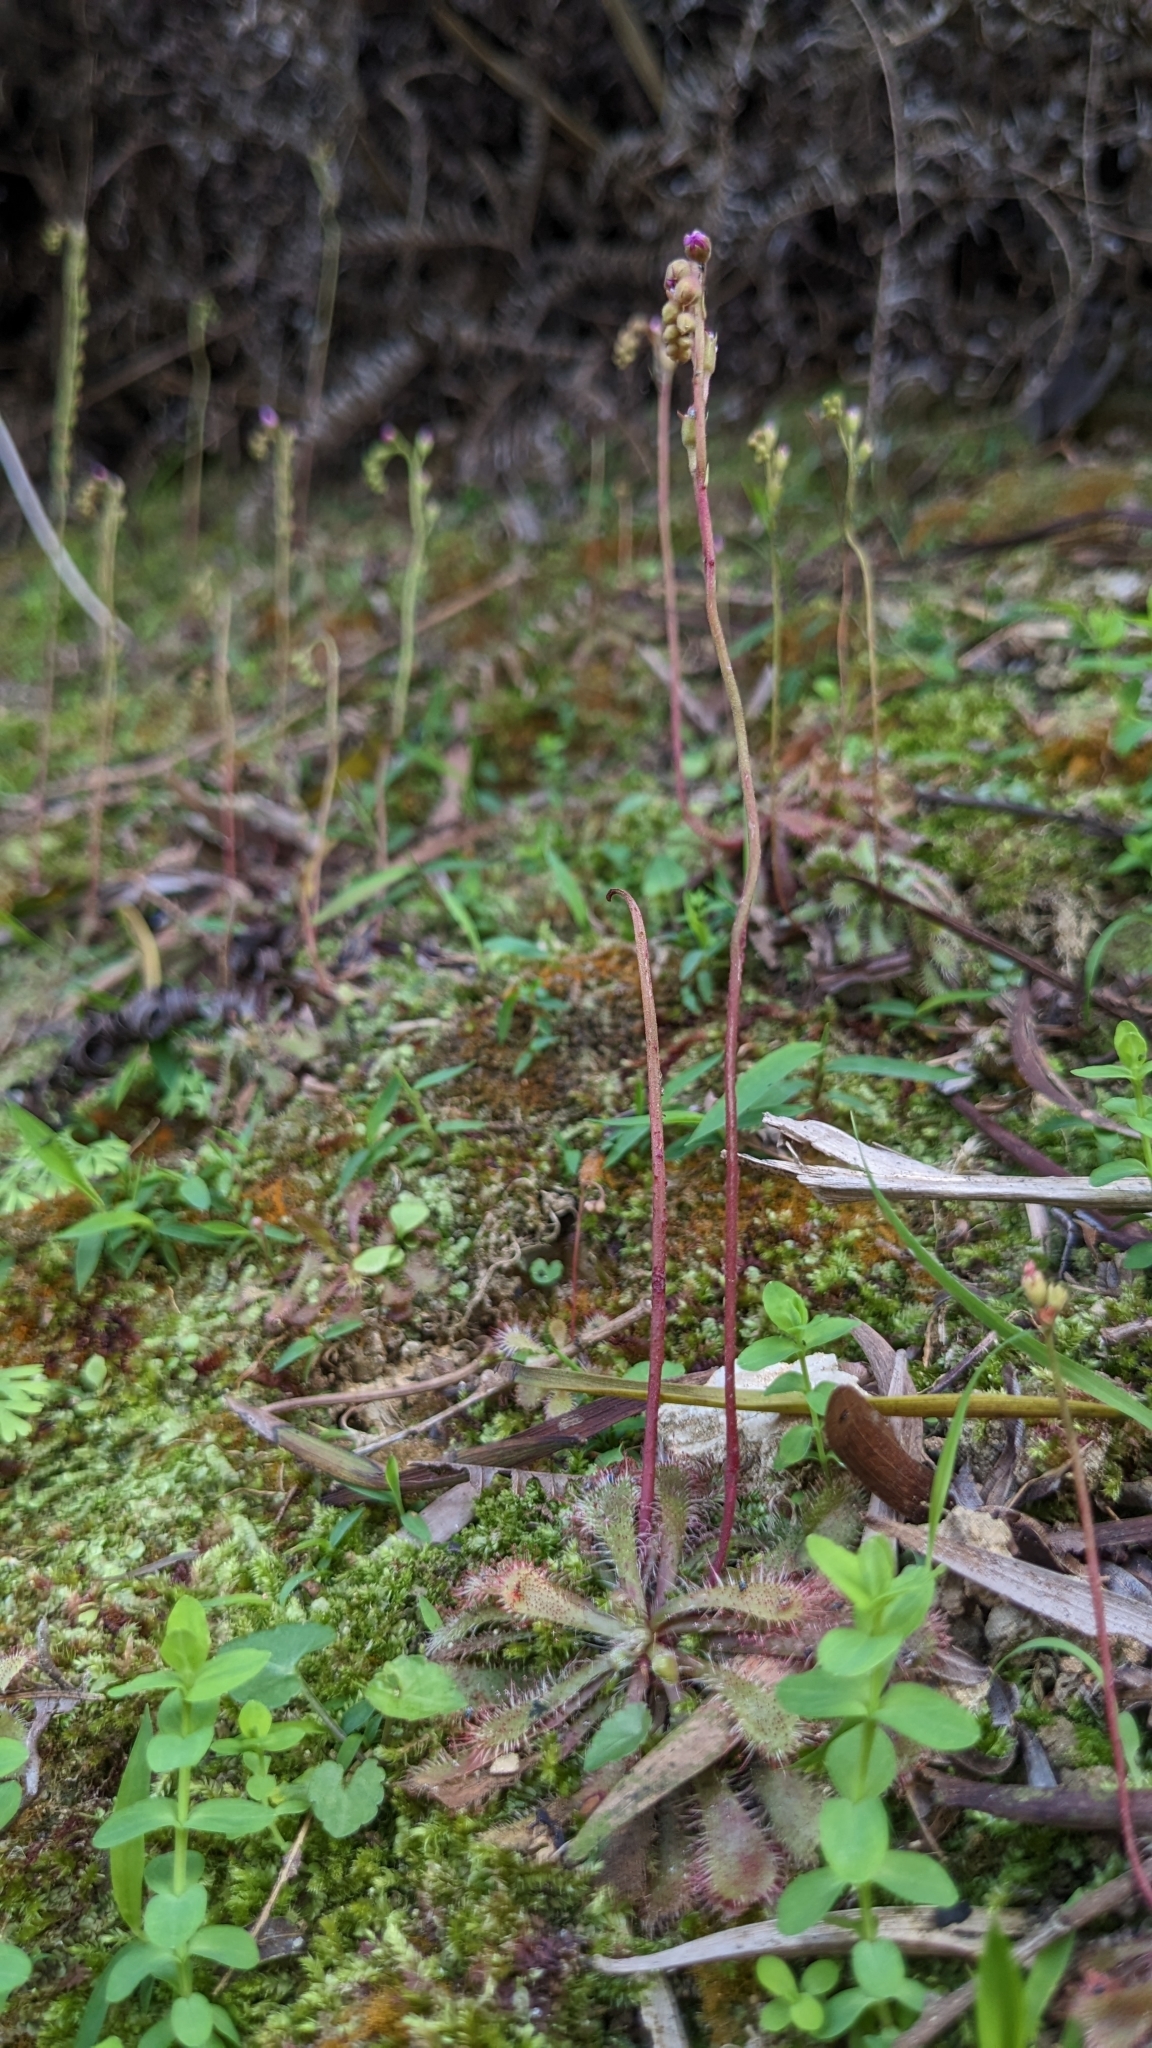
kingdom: Plantae
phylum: Tracheophyta
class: Magnoliopsida
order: Caryophyllales
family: Droseraceae
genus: Drosera
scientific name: Drosera spatulata
